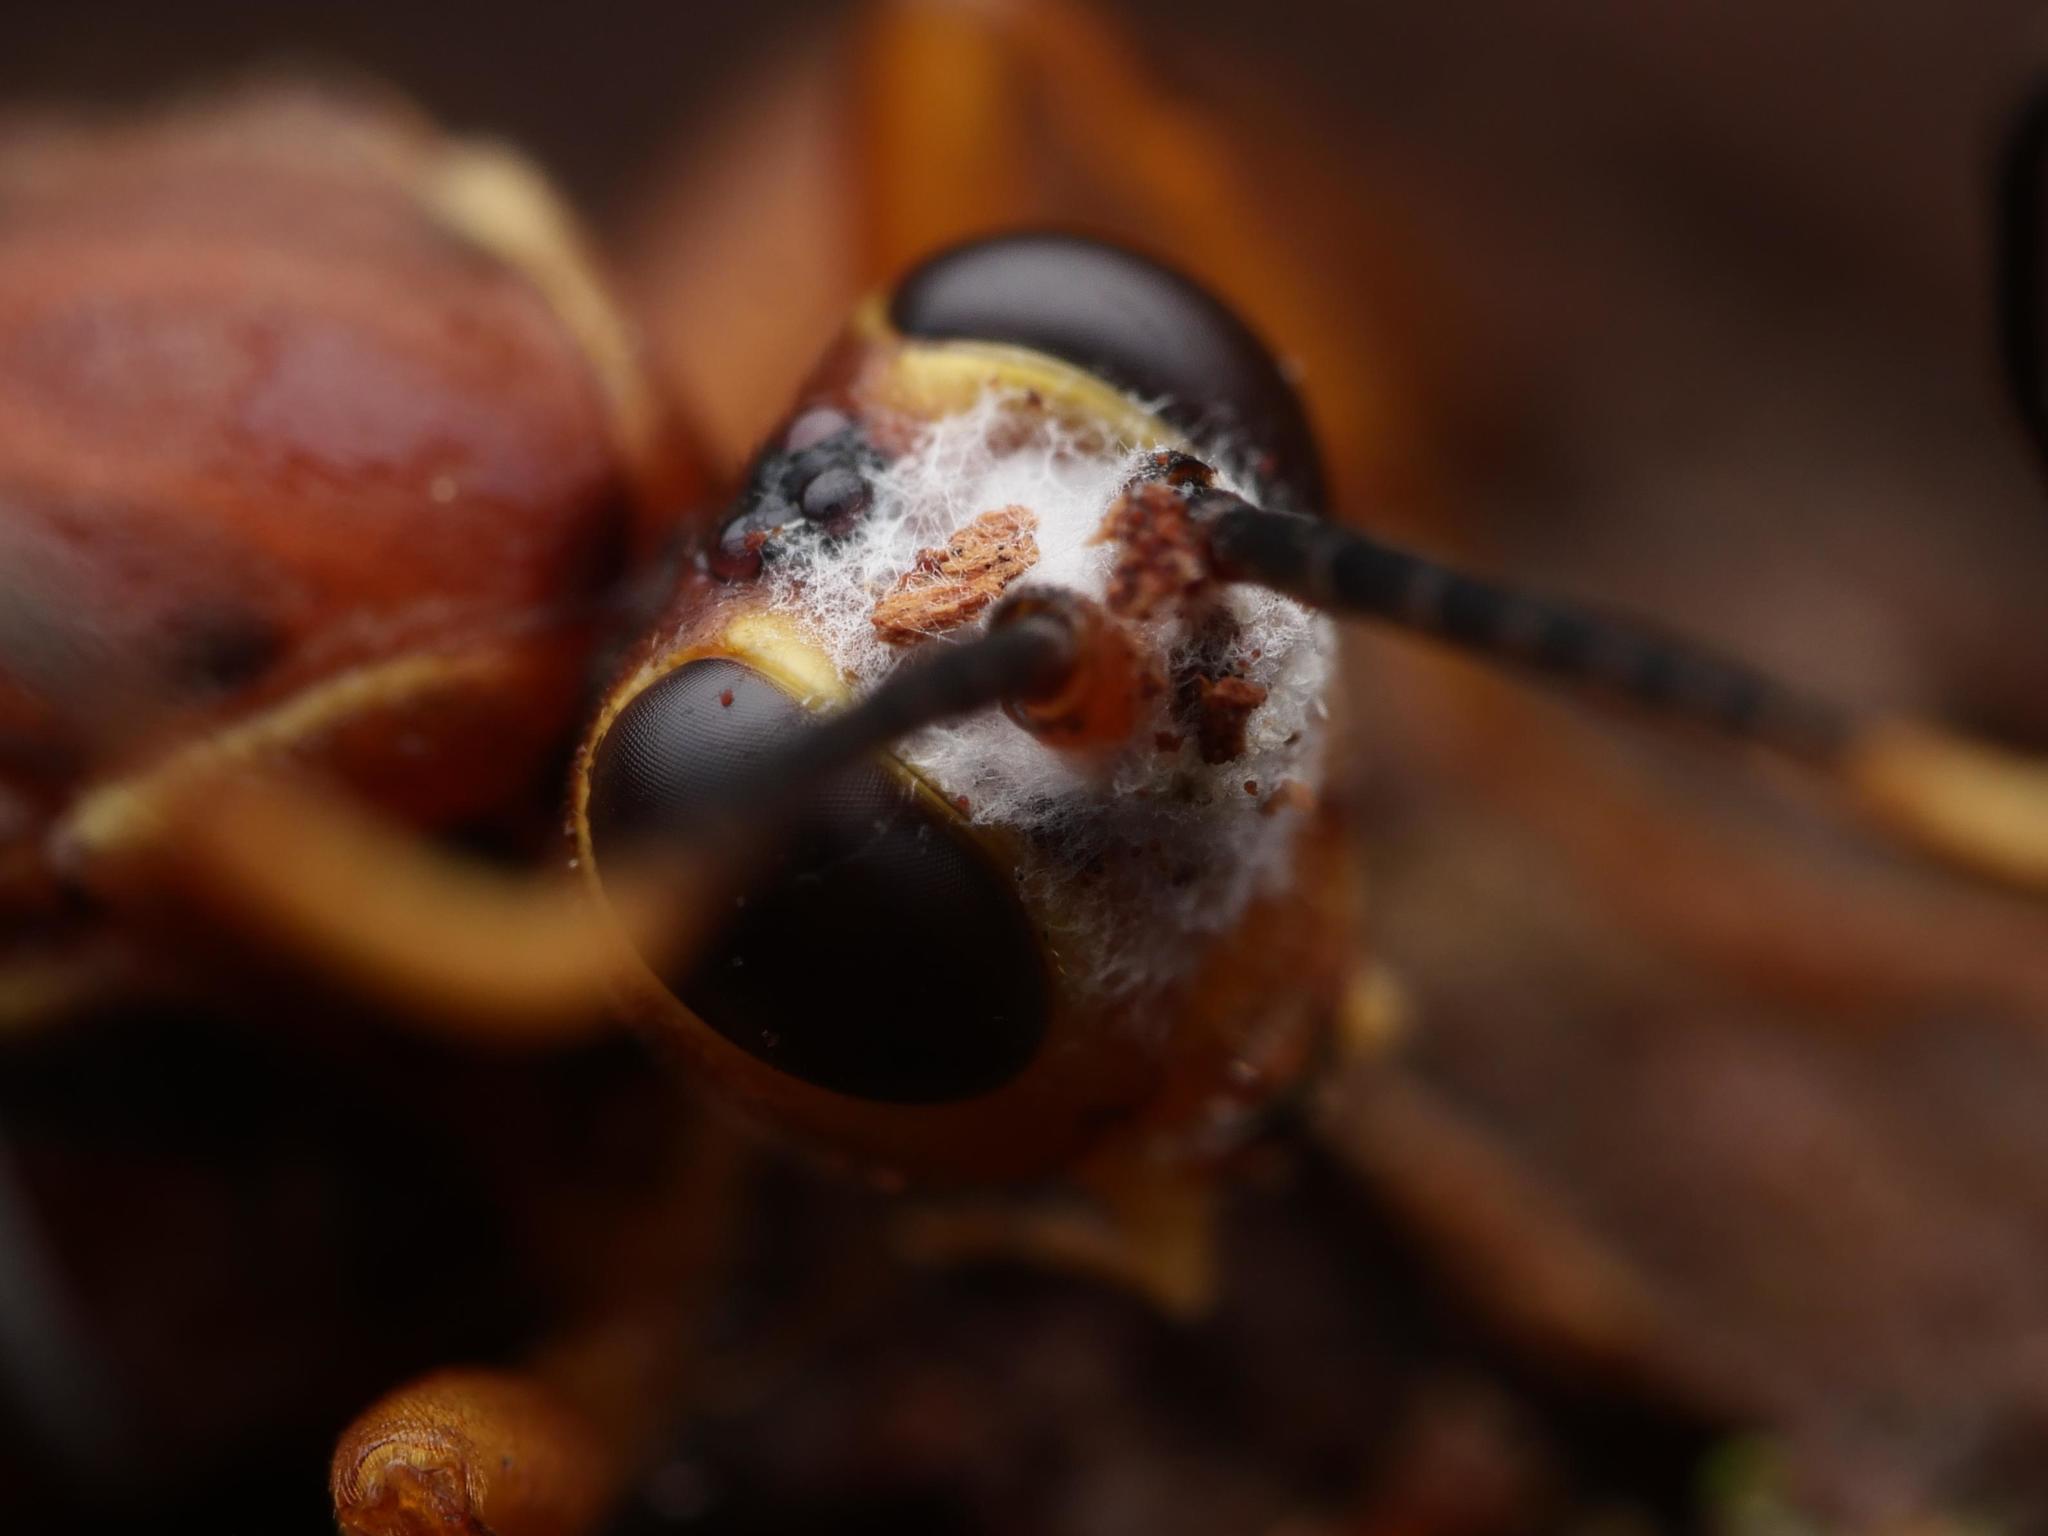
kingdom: Animalia
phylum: Arthropoda
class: Insecta
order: Hymenoptera
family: Ichneumonidae
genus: Lymantrichneumon
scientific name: Lymantrichneumon disparis
